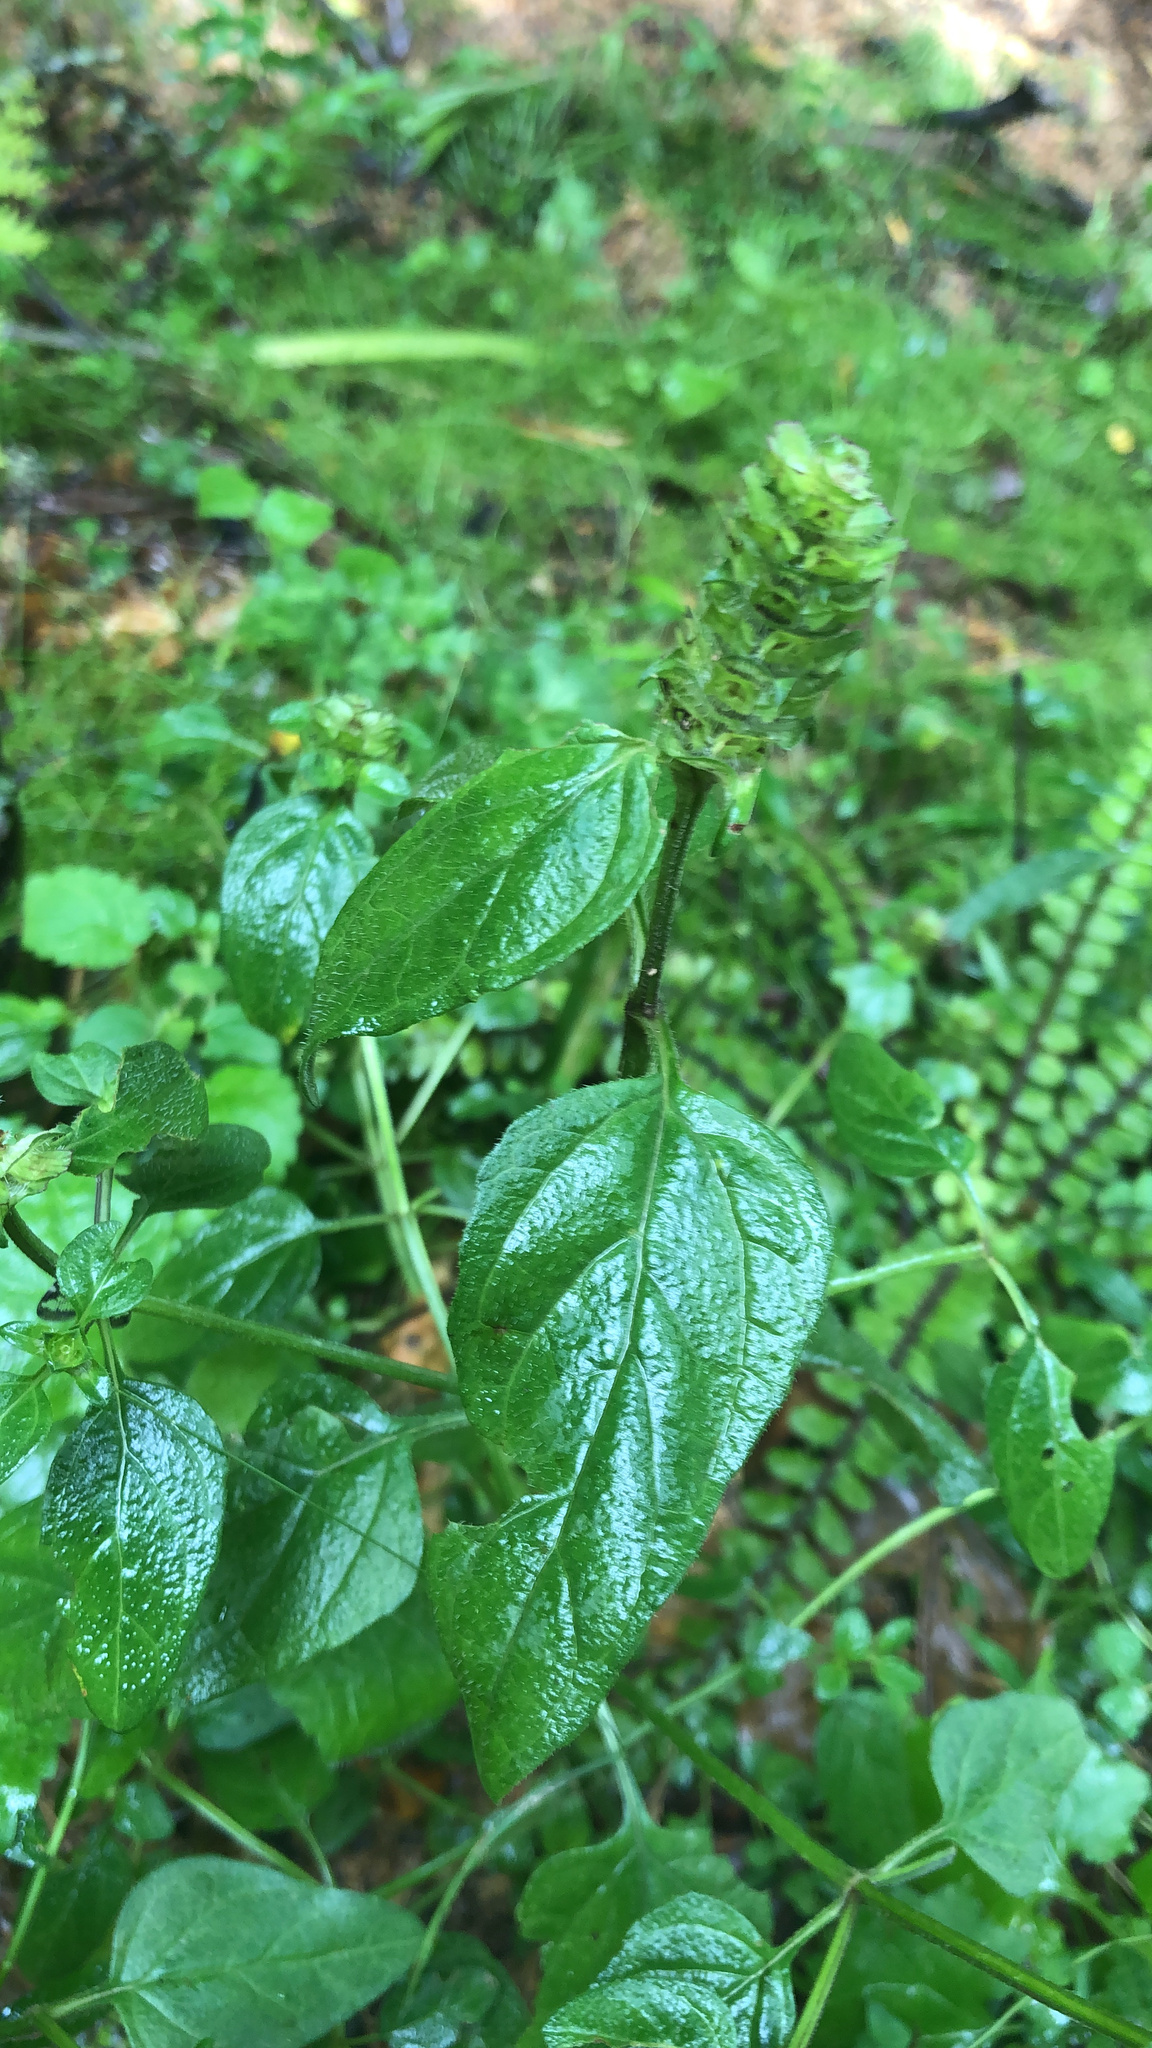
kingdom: Plantae
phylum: Tracheophyta
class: Magnoliopsida
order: Lamiales
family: Lamiaceae
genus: Prunella
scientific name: Prunella vulgaris
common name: Heal-all
